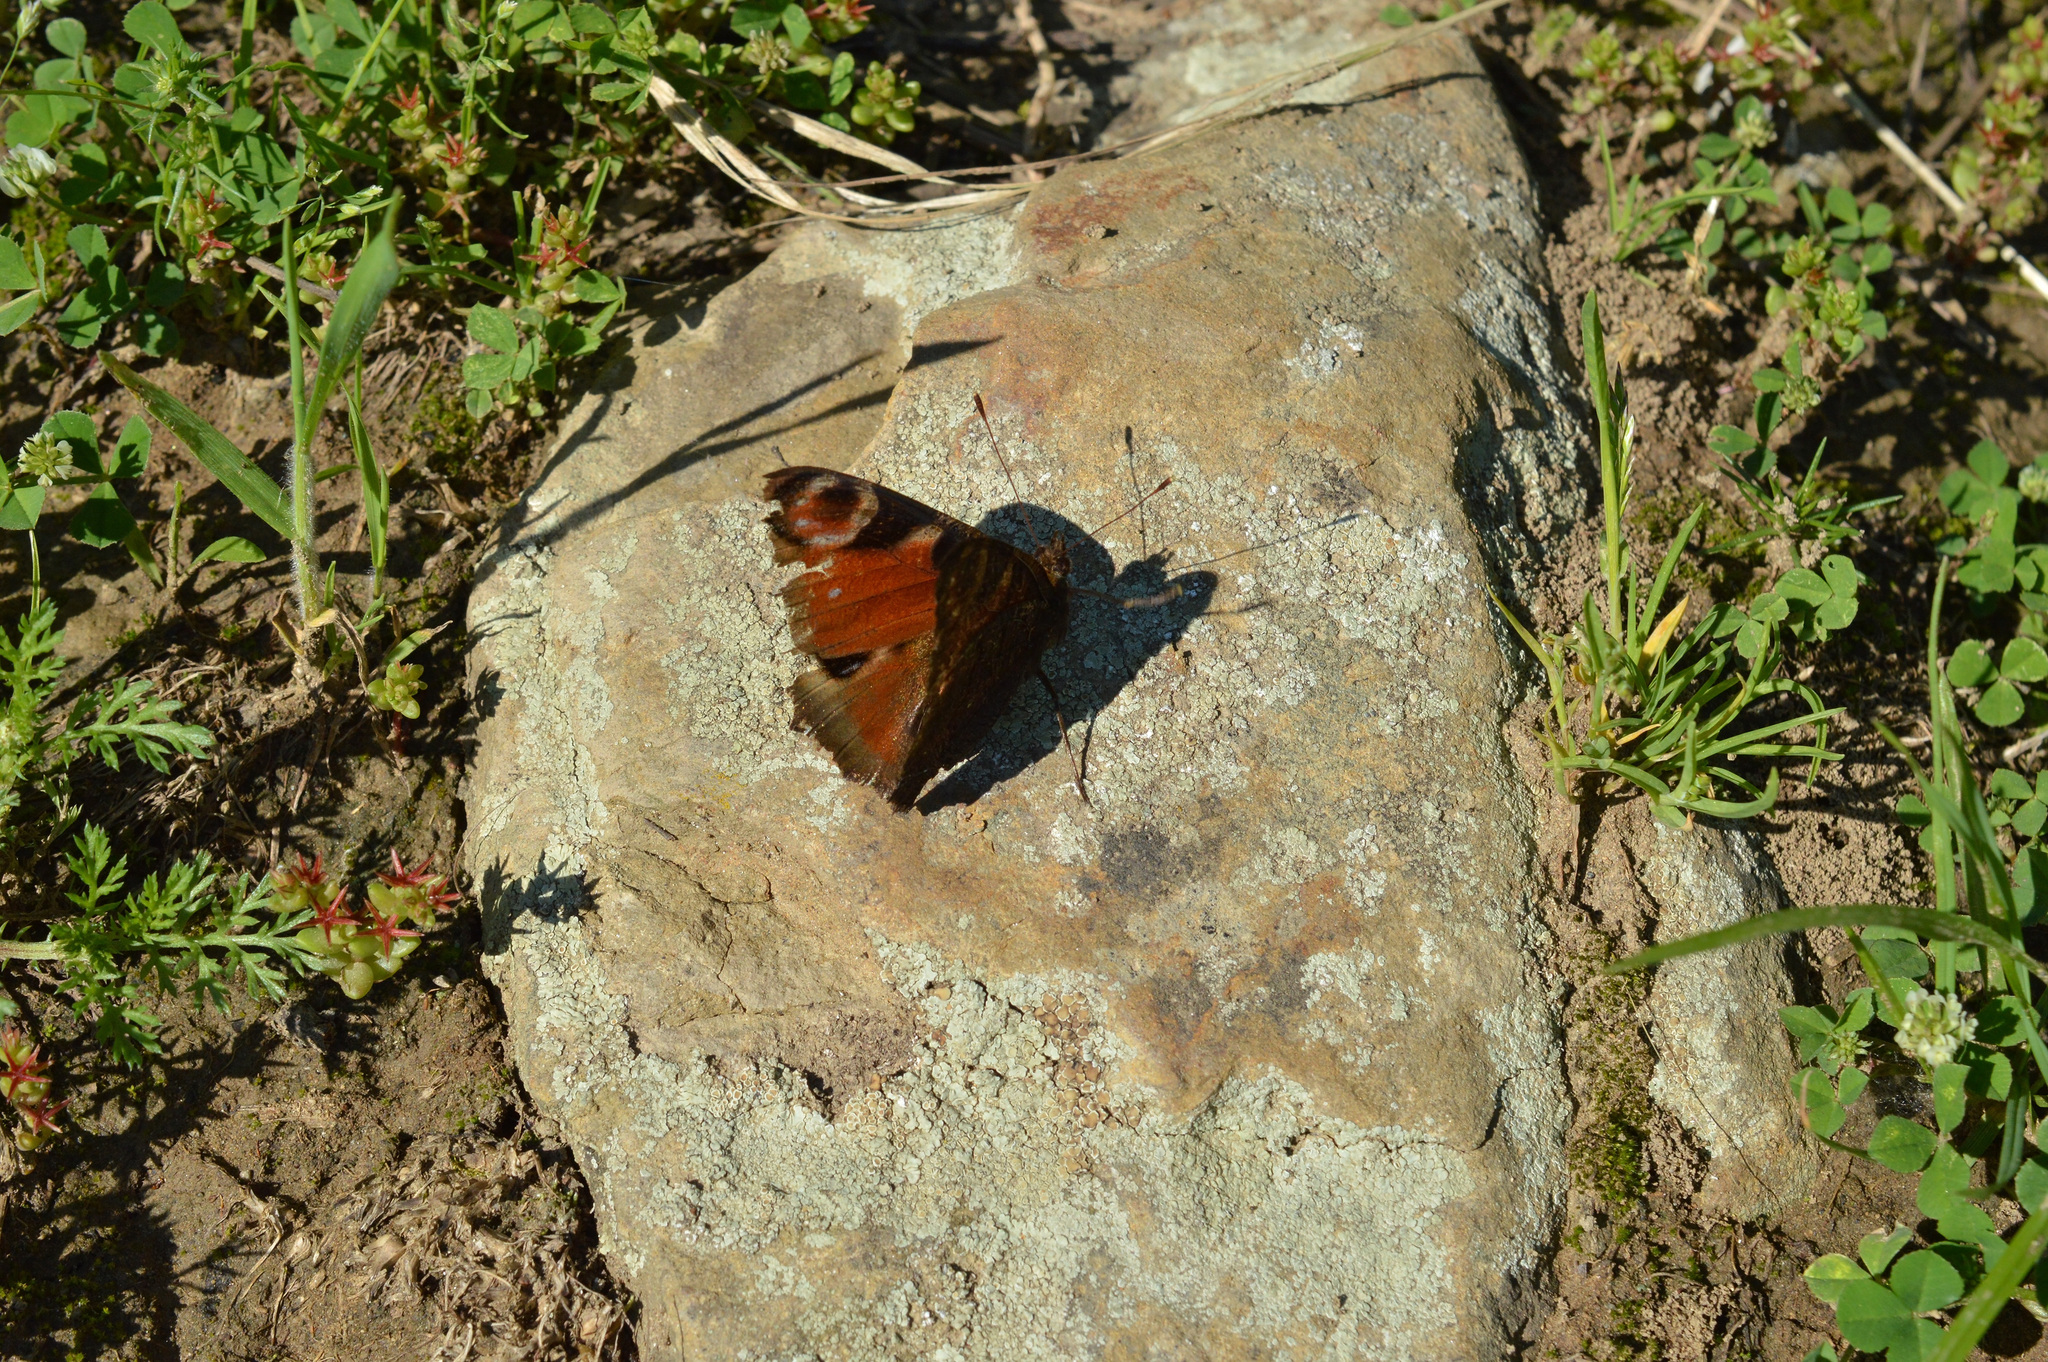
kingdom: Animalia
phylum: Arthropoda
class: Insecta
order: Lepidoptera
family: Nymphalidae
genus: Aglais
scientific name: Aglais io
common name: Peacock
